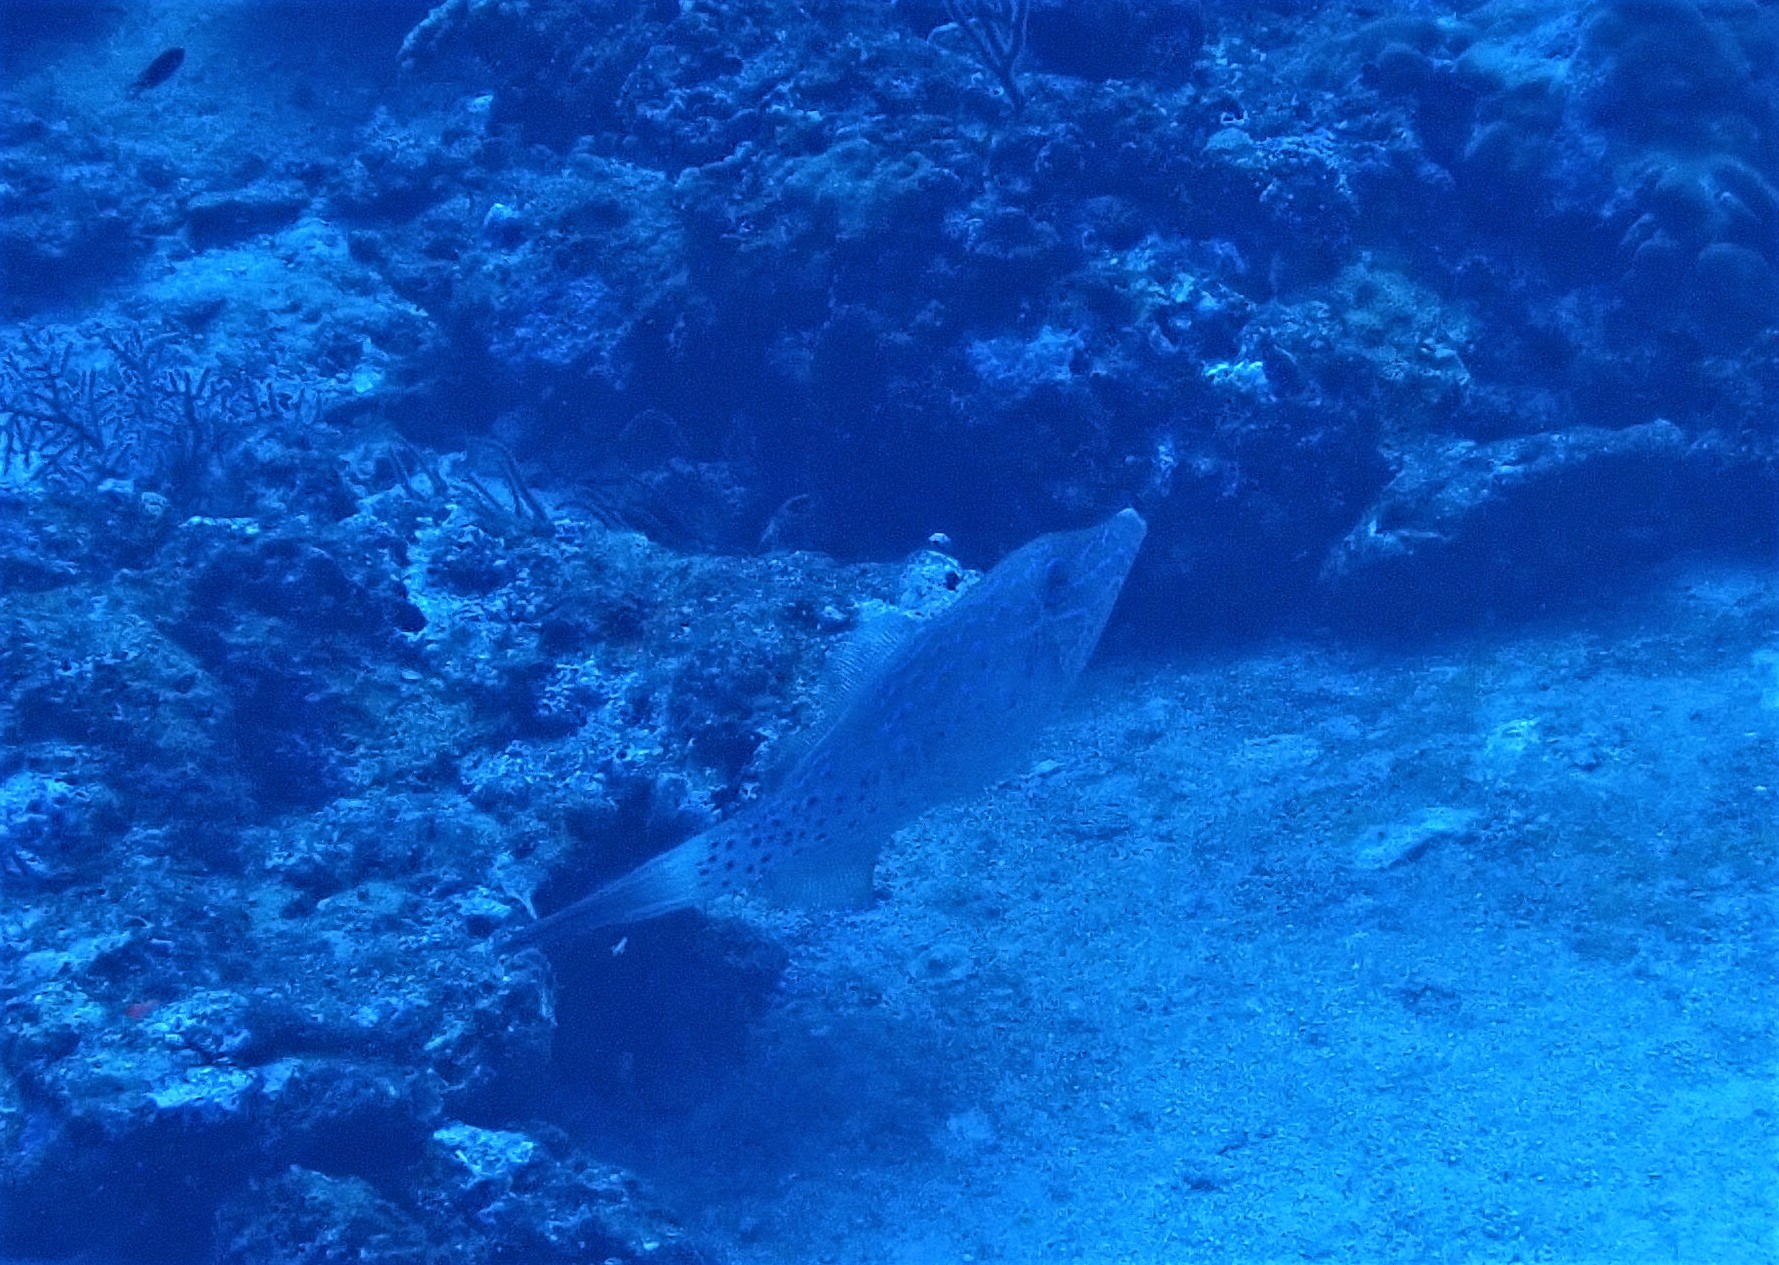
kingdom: Animalia
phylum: Chordata
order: Tetraodontiformes
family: Monacanthidae
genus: Aluterus
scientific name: Aluterus scriptus
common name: Scribbled leatherjacket filefish
